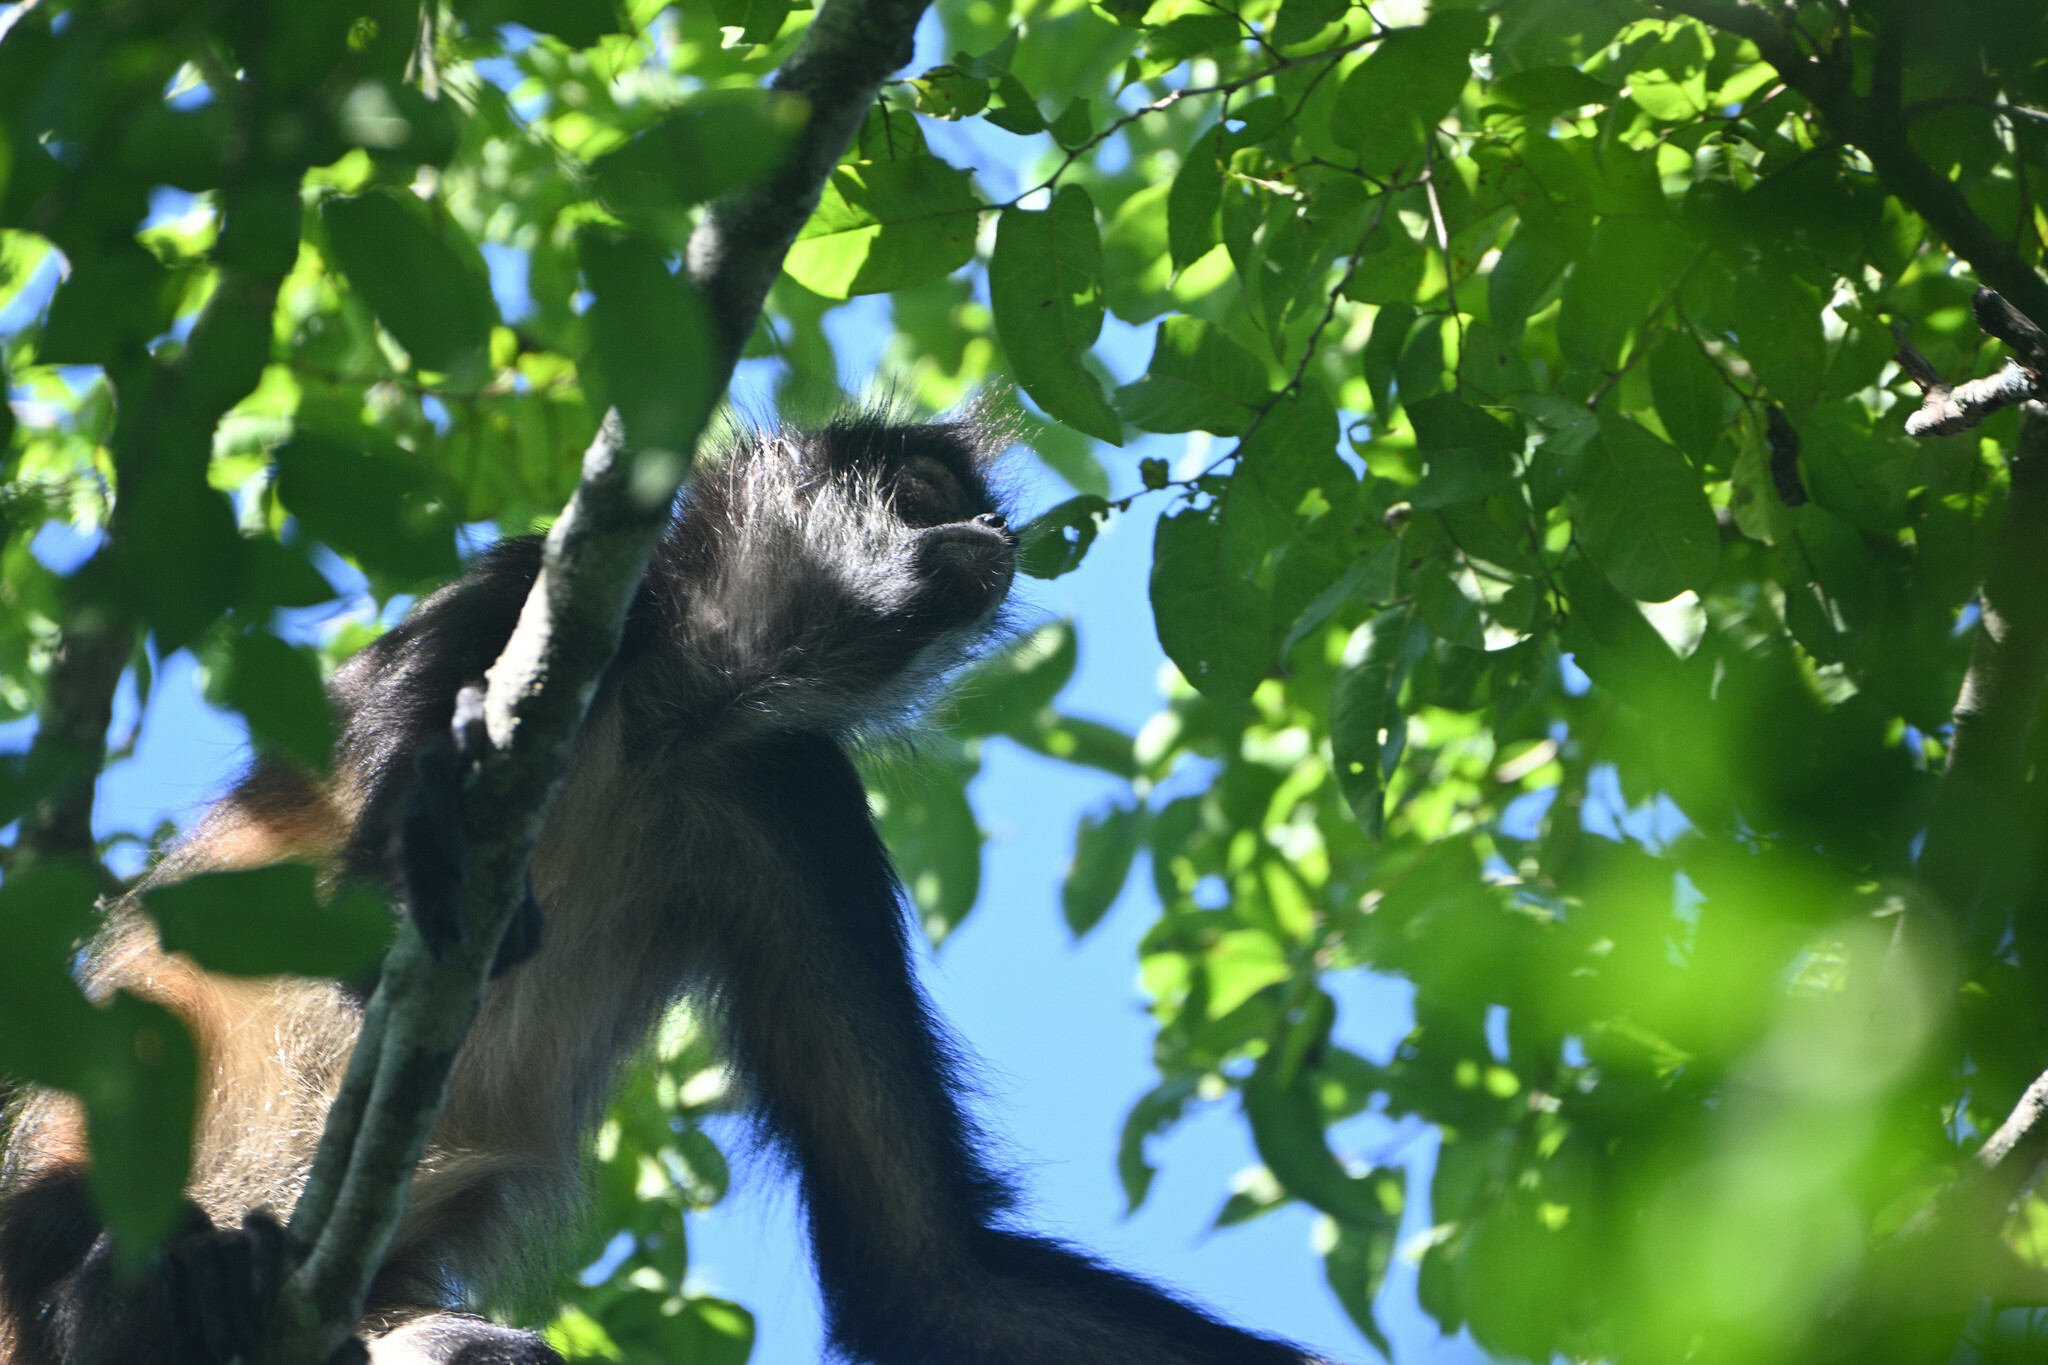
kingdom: Animalia
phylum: Chordata
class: Mammalia
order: Primates
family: Atelidae
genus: Ateles
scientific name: Ateles geoffroyi
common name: Black-handed spider monkey
